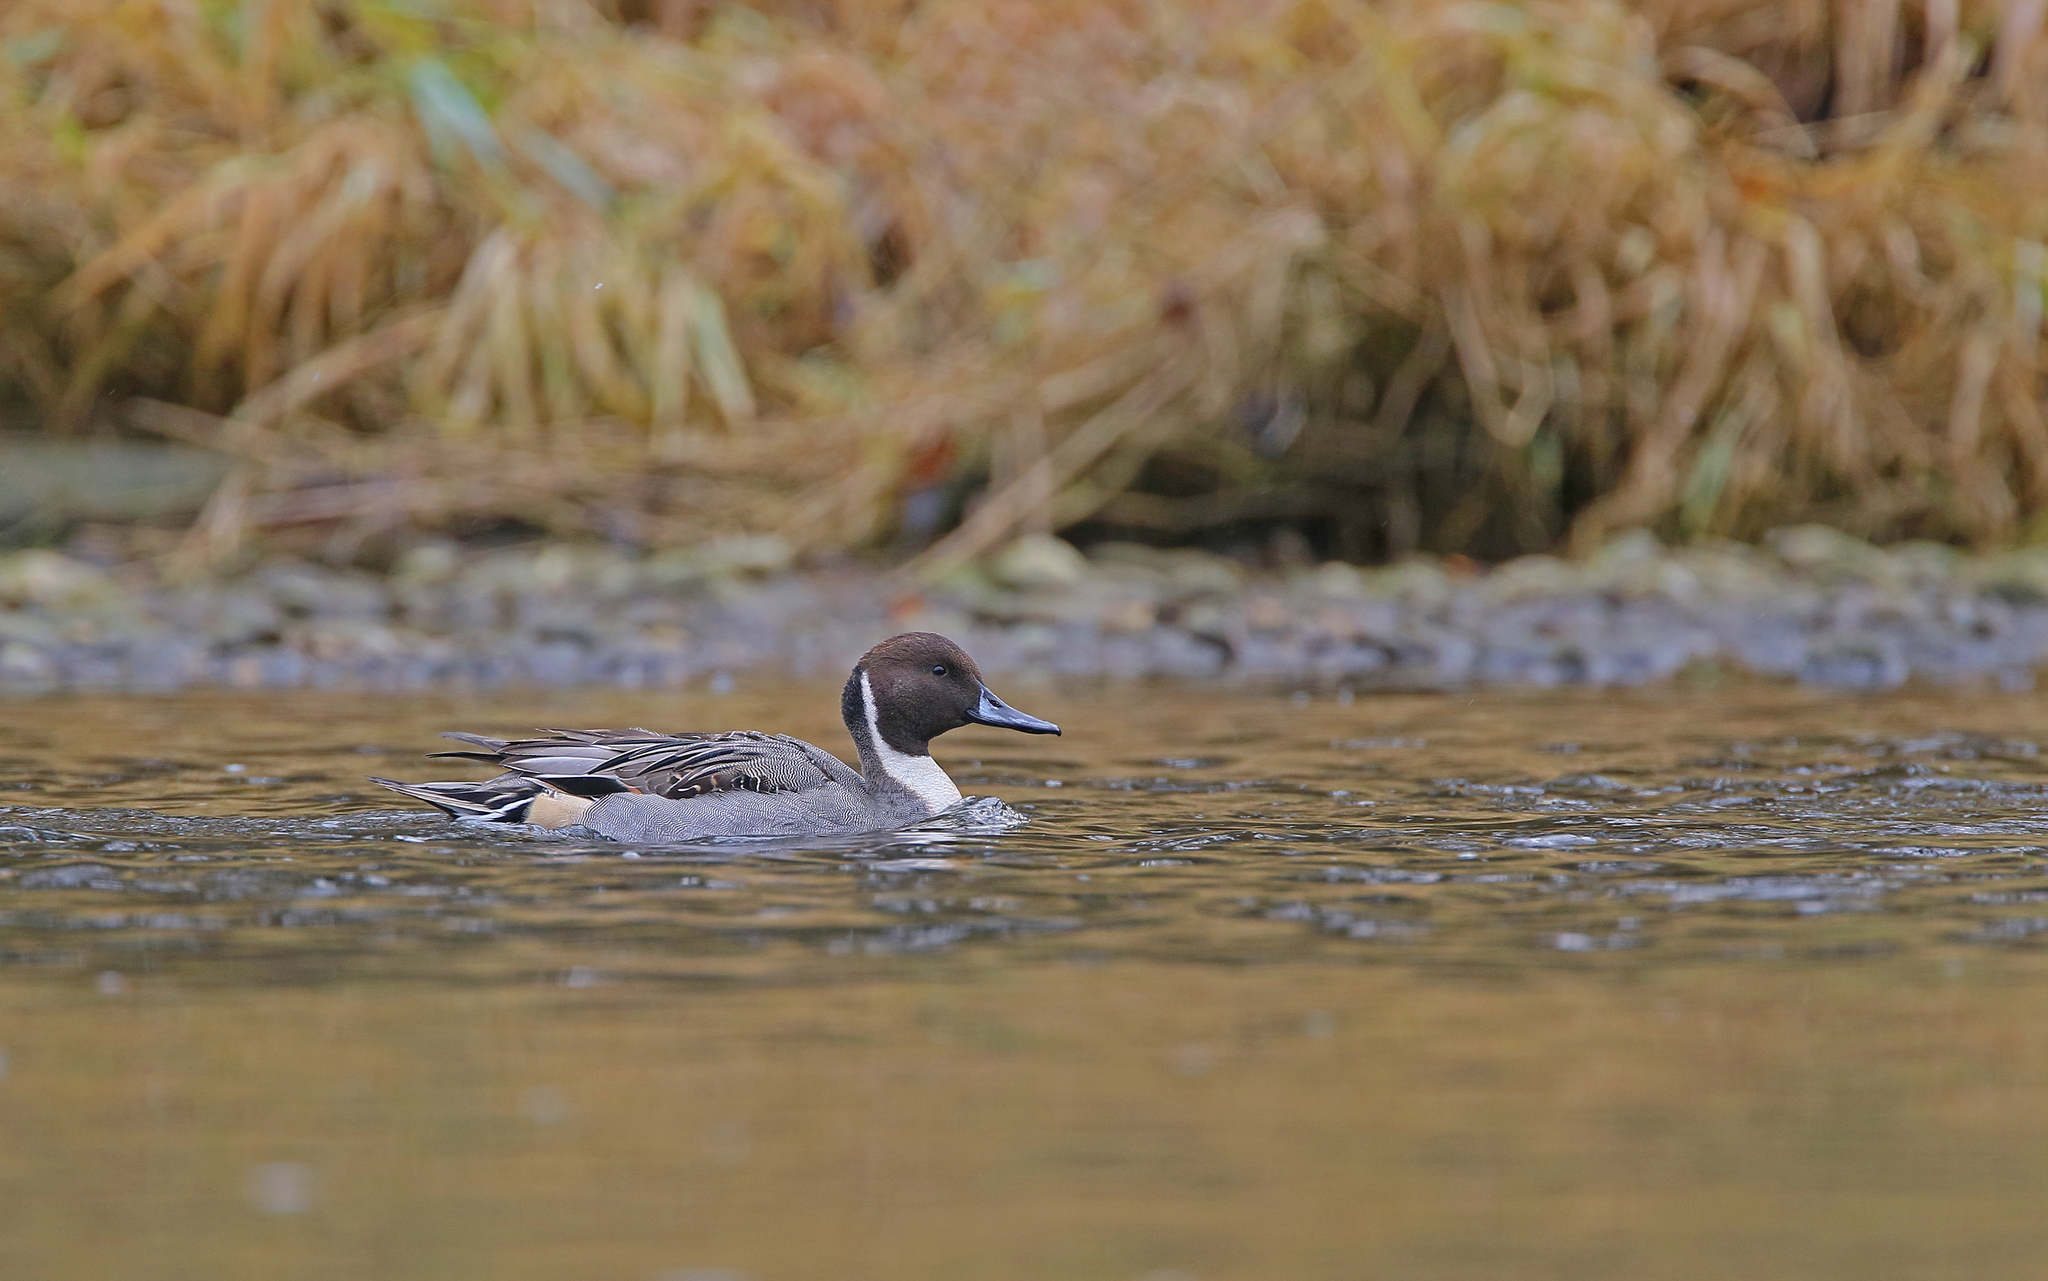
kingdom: Animalia
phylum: Chordata
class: Aves
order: Anseriformes
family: Anatidae
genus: Anas
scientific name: Anas acuta
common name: Northern pintail
